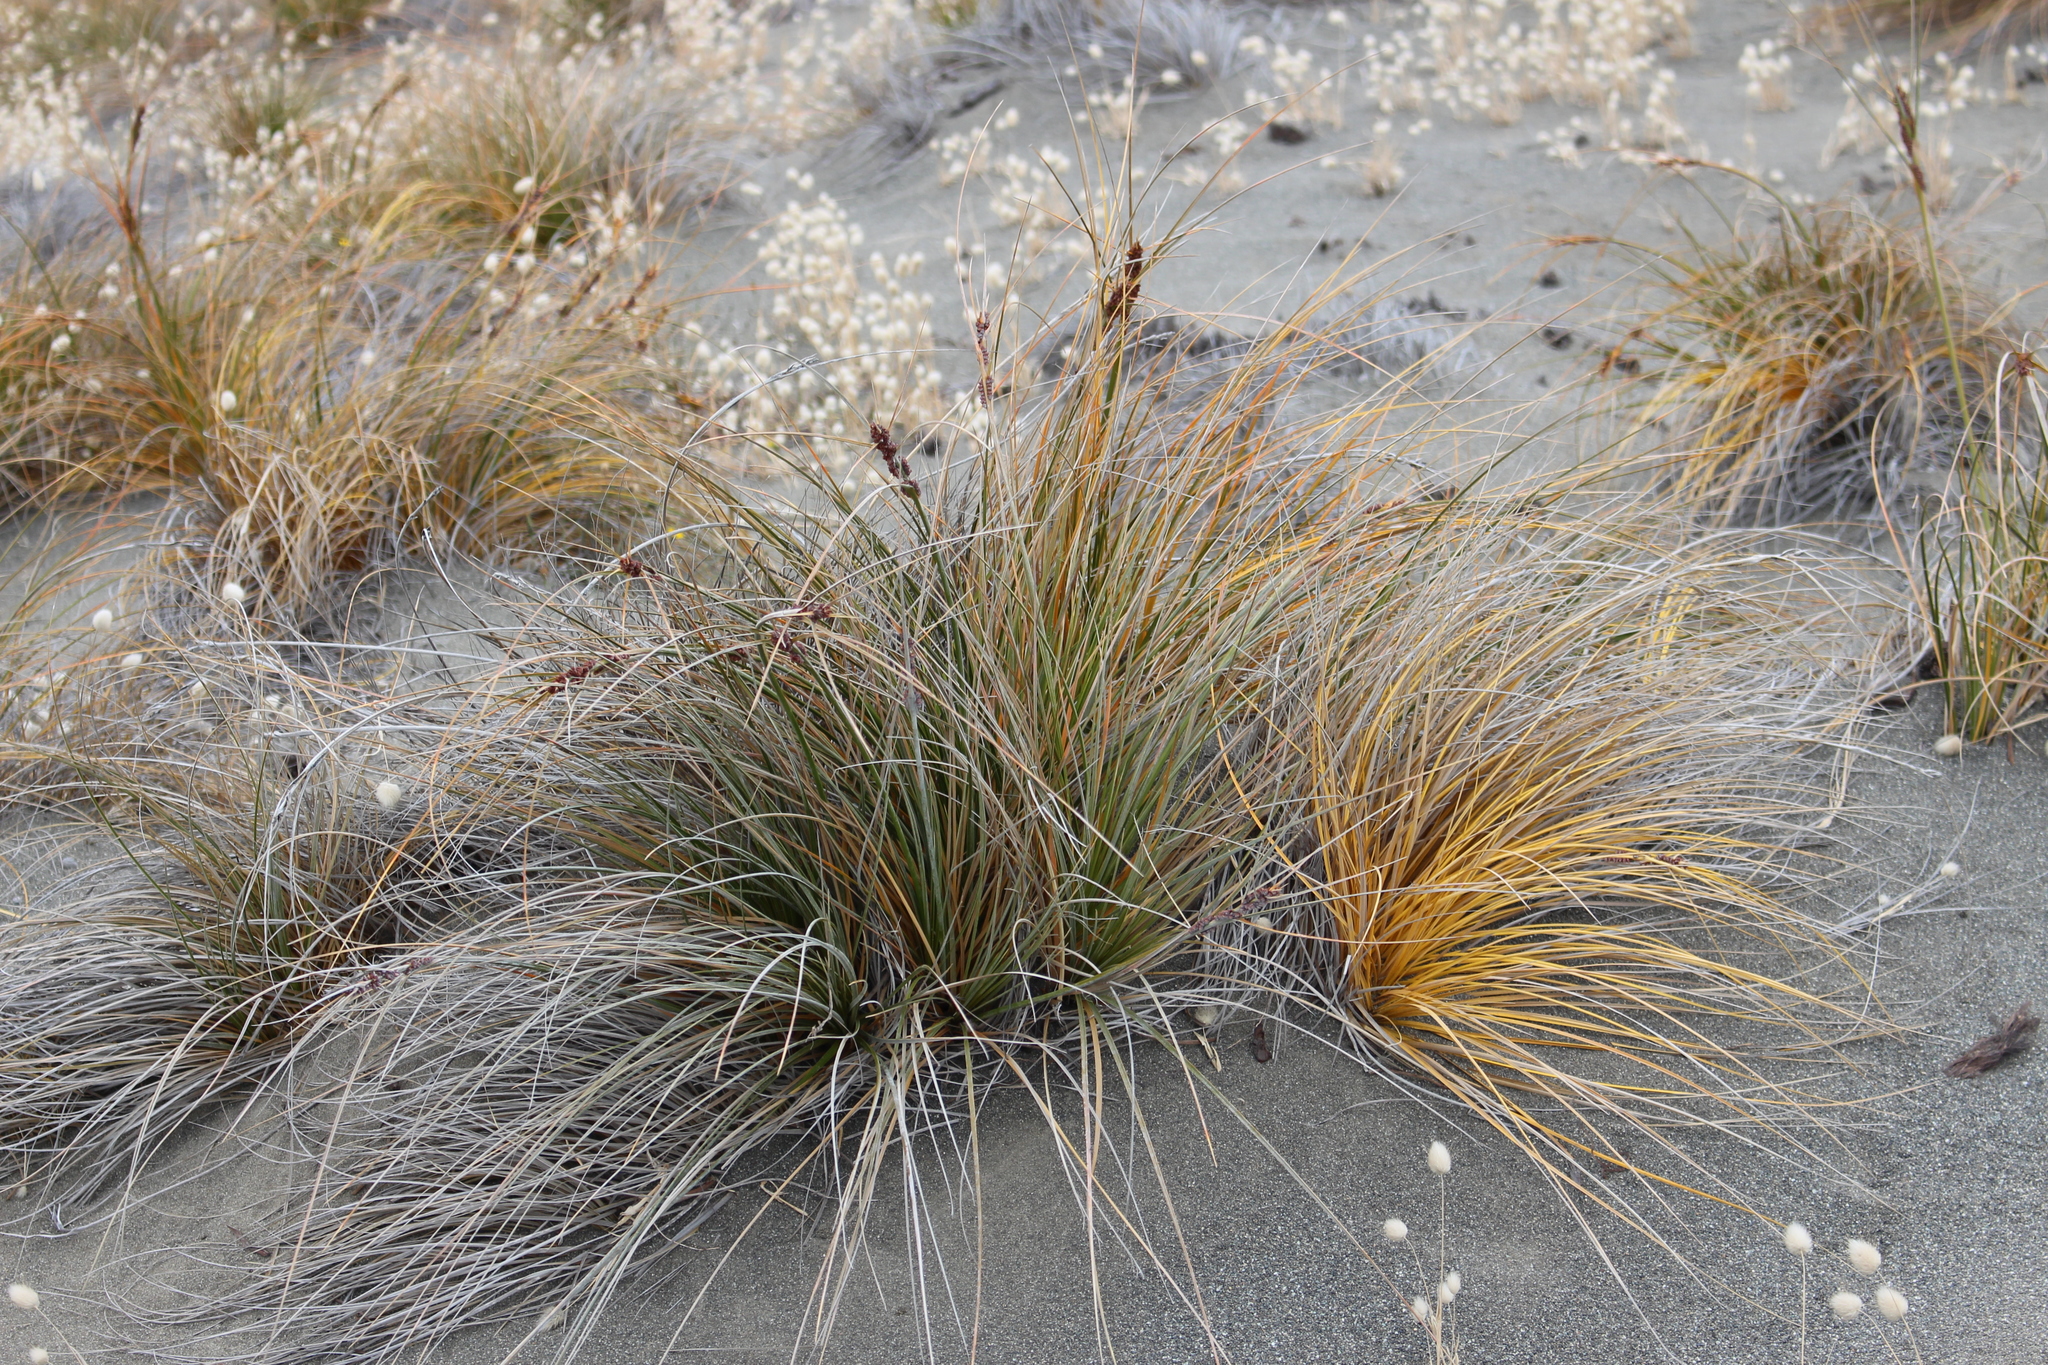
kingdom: Plantae
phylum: Tracheophyta
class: Liliopsida
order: Poales
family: Cyperaceae
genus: Ficinia
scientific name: Ficinia spiralis
